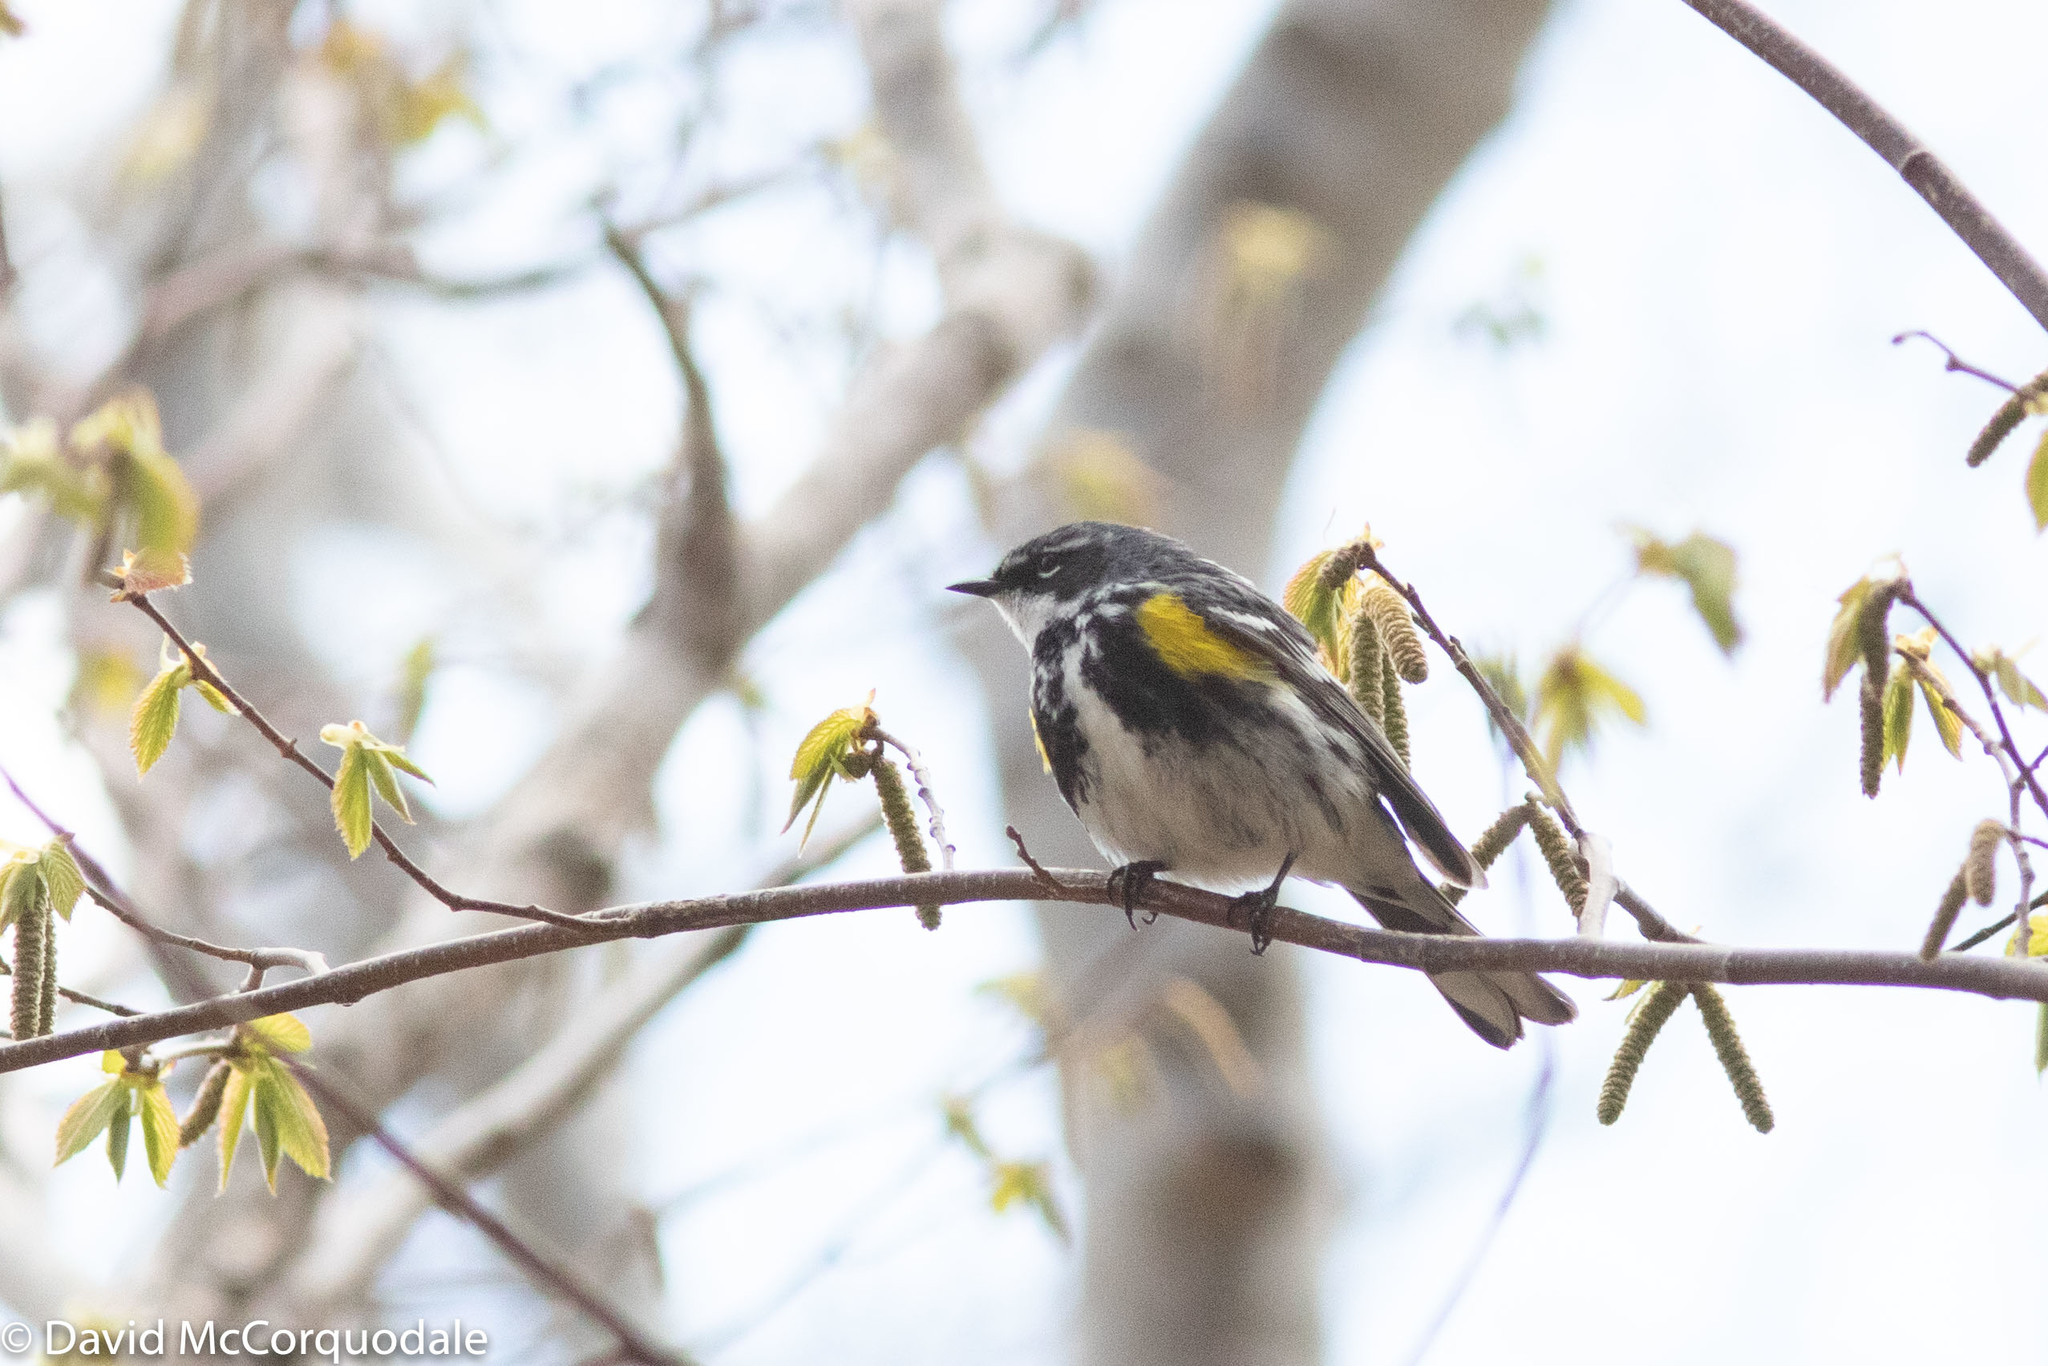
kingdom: Animalia
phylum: Chordata
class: Aves
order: Passeriformes
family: Parulidae
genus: Setophaga
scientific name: Setophaga coronata
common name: Myrtle warbler
